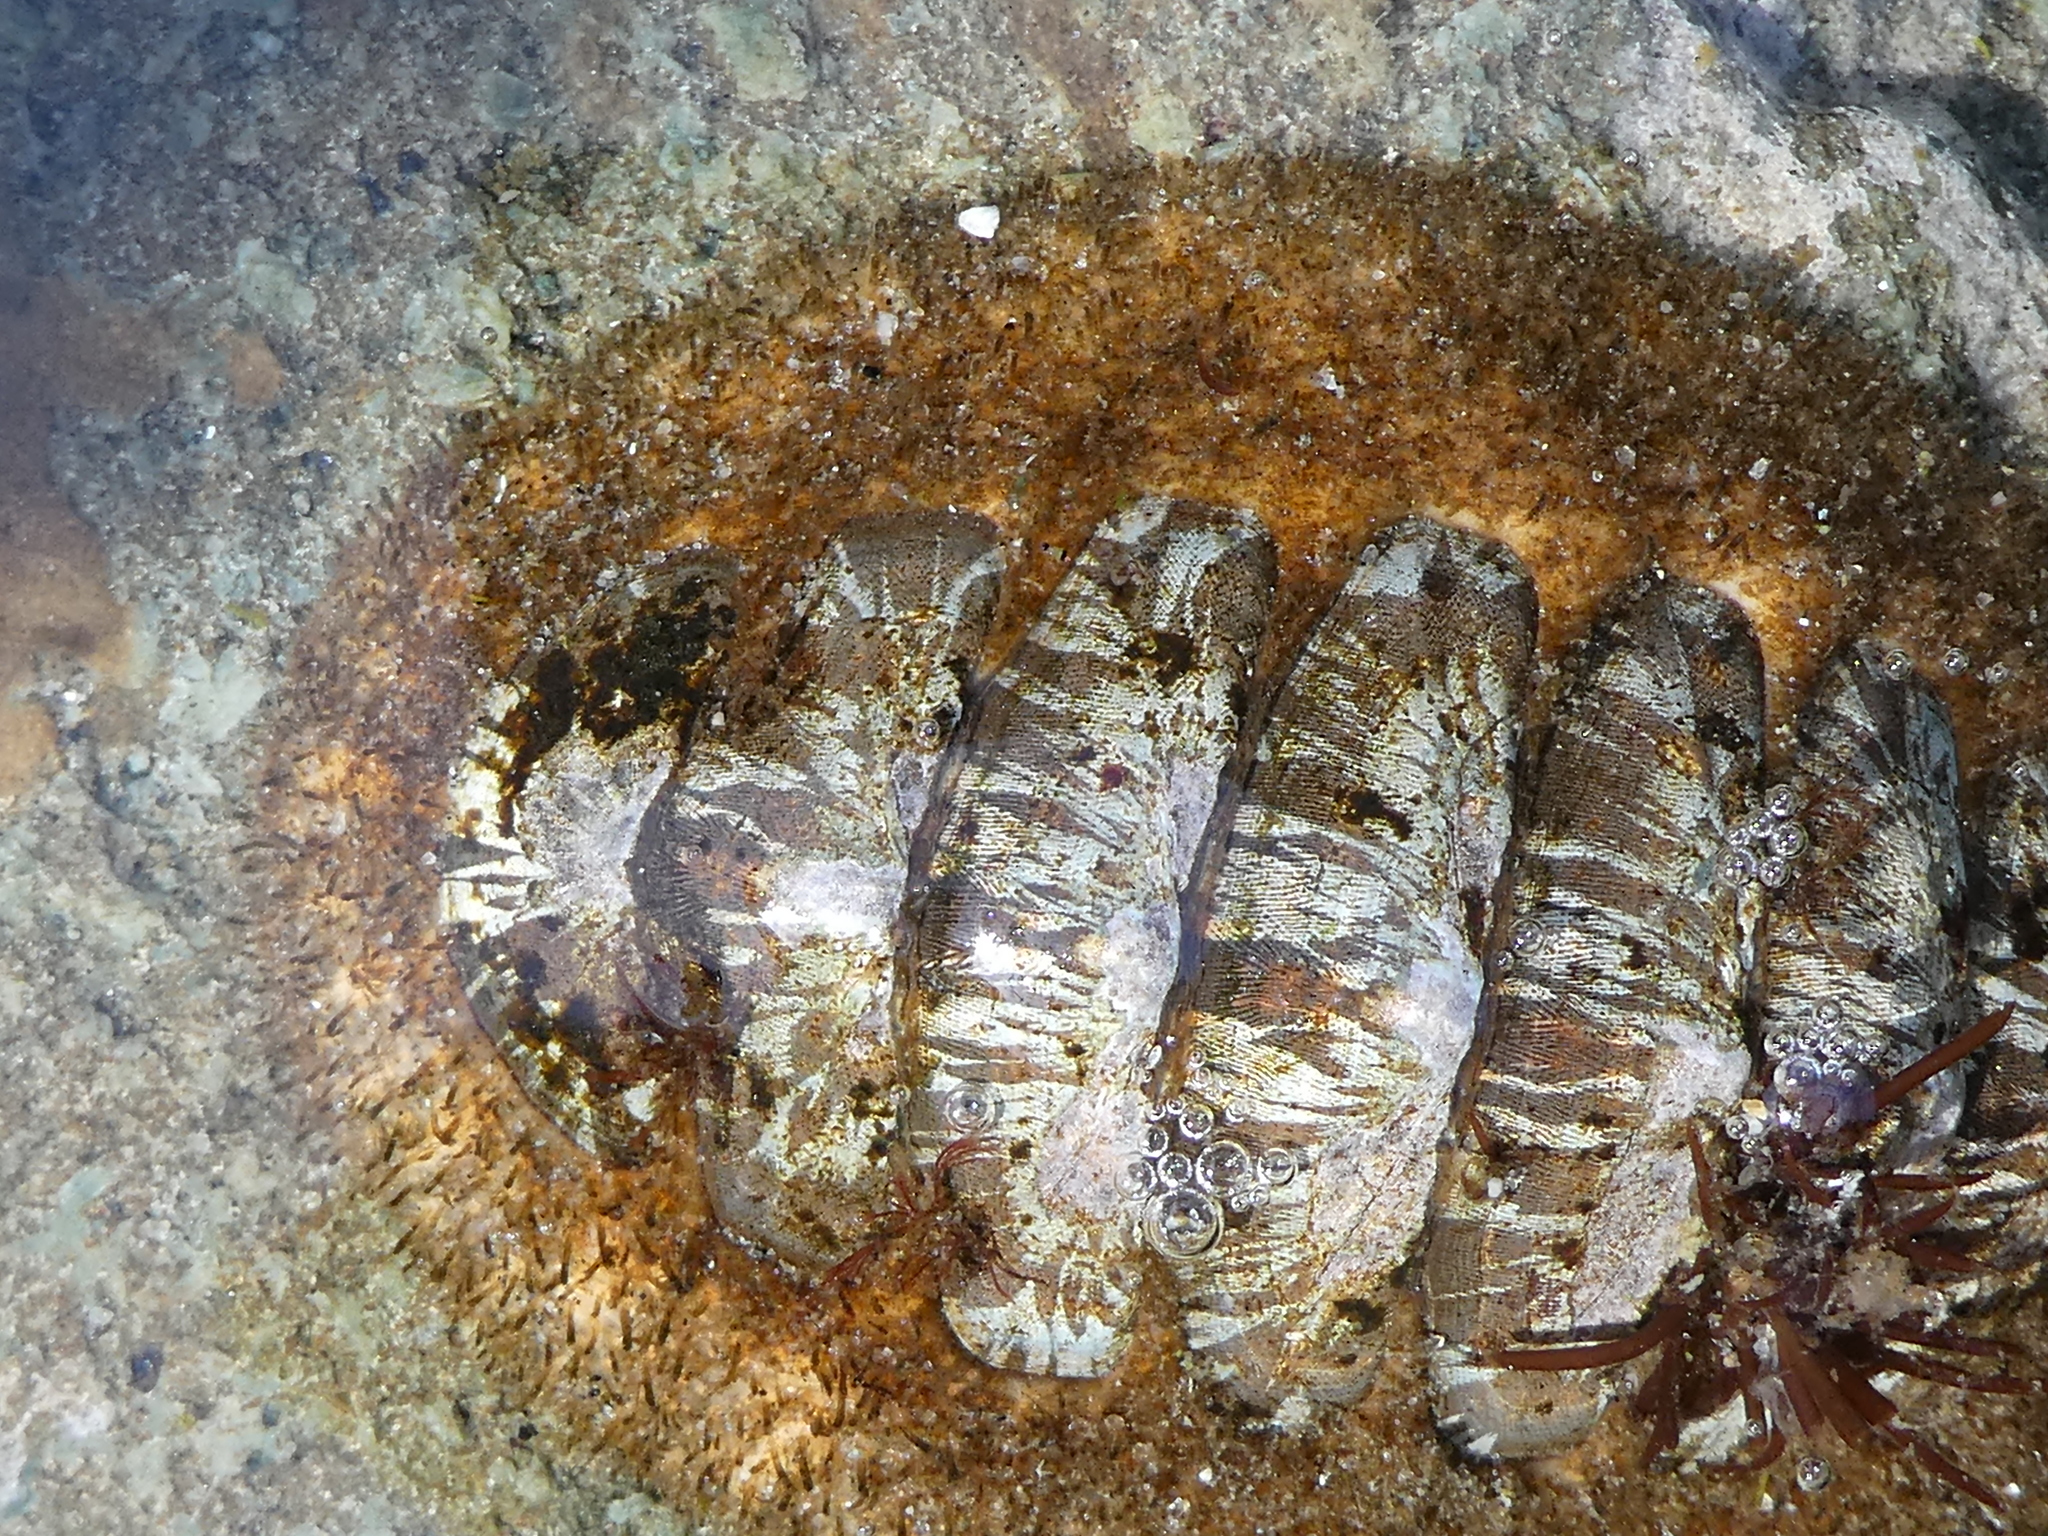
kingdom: Animalia
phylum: Mollusca
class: Polyplacophora
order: Chitonida
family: Mopaliidae
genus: Mopalia
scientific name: Mopalia lignosa
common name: Woody chiton
